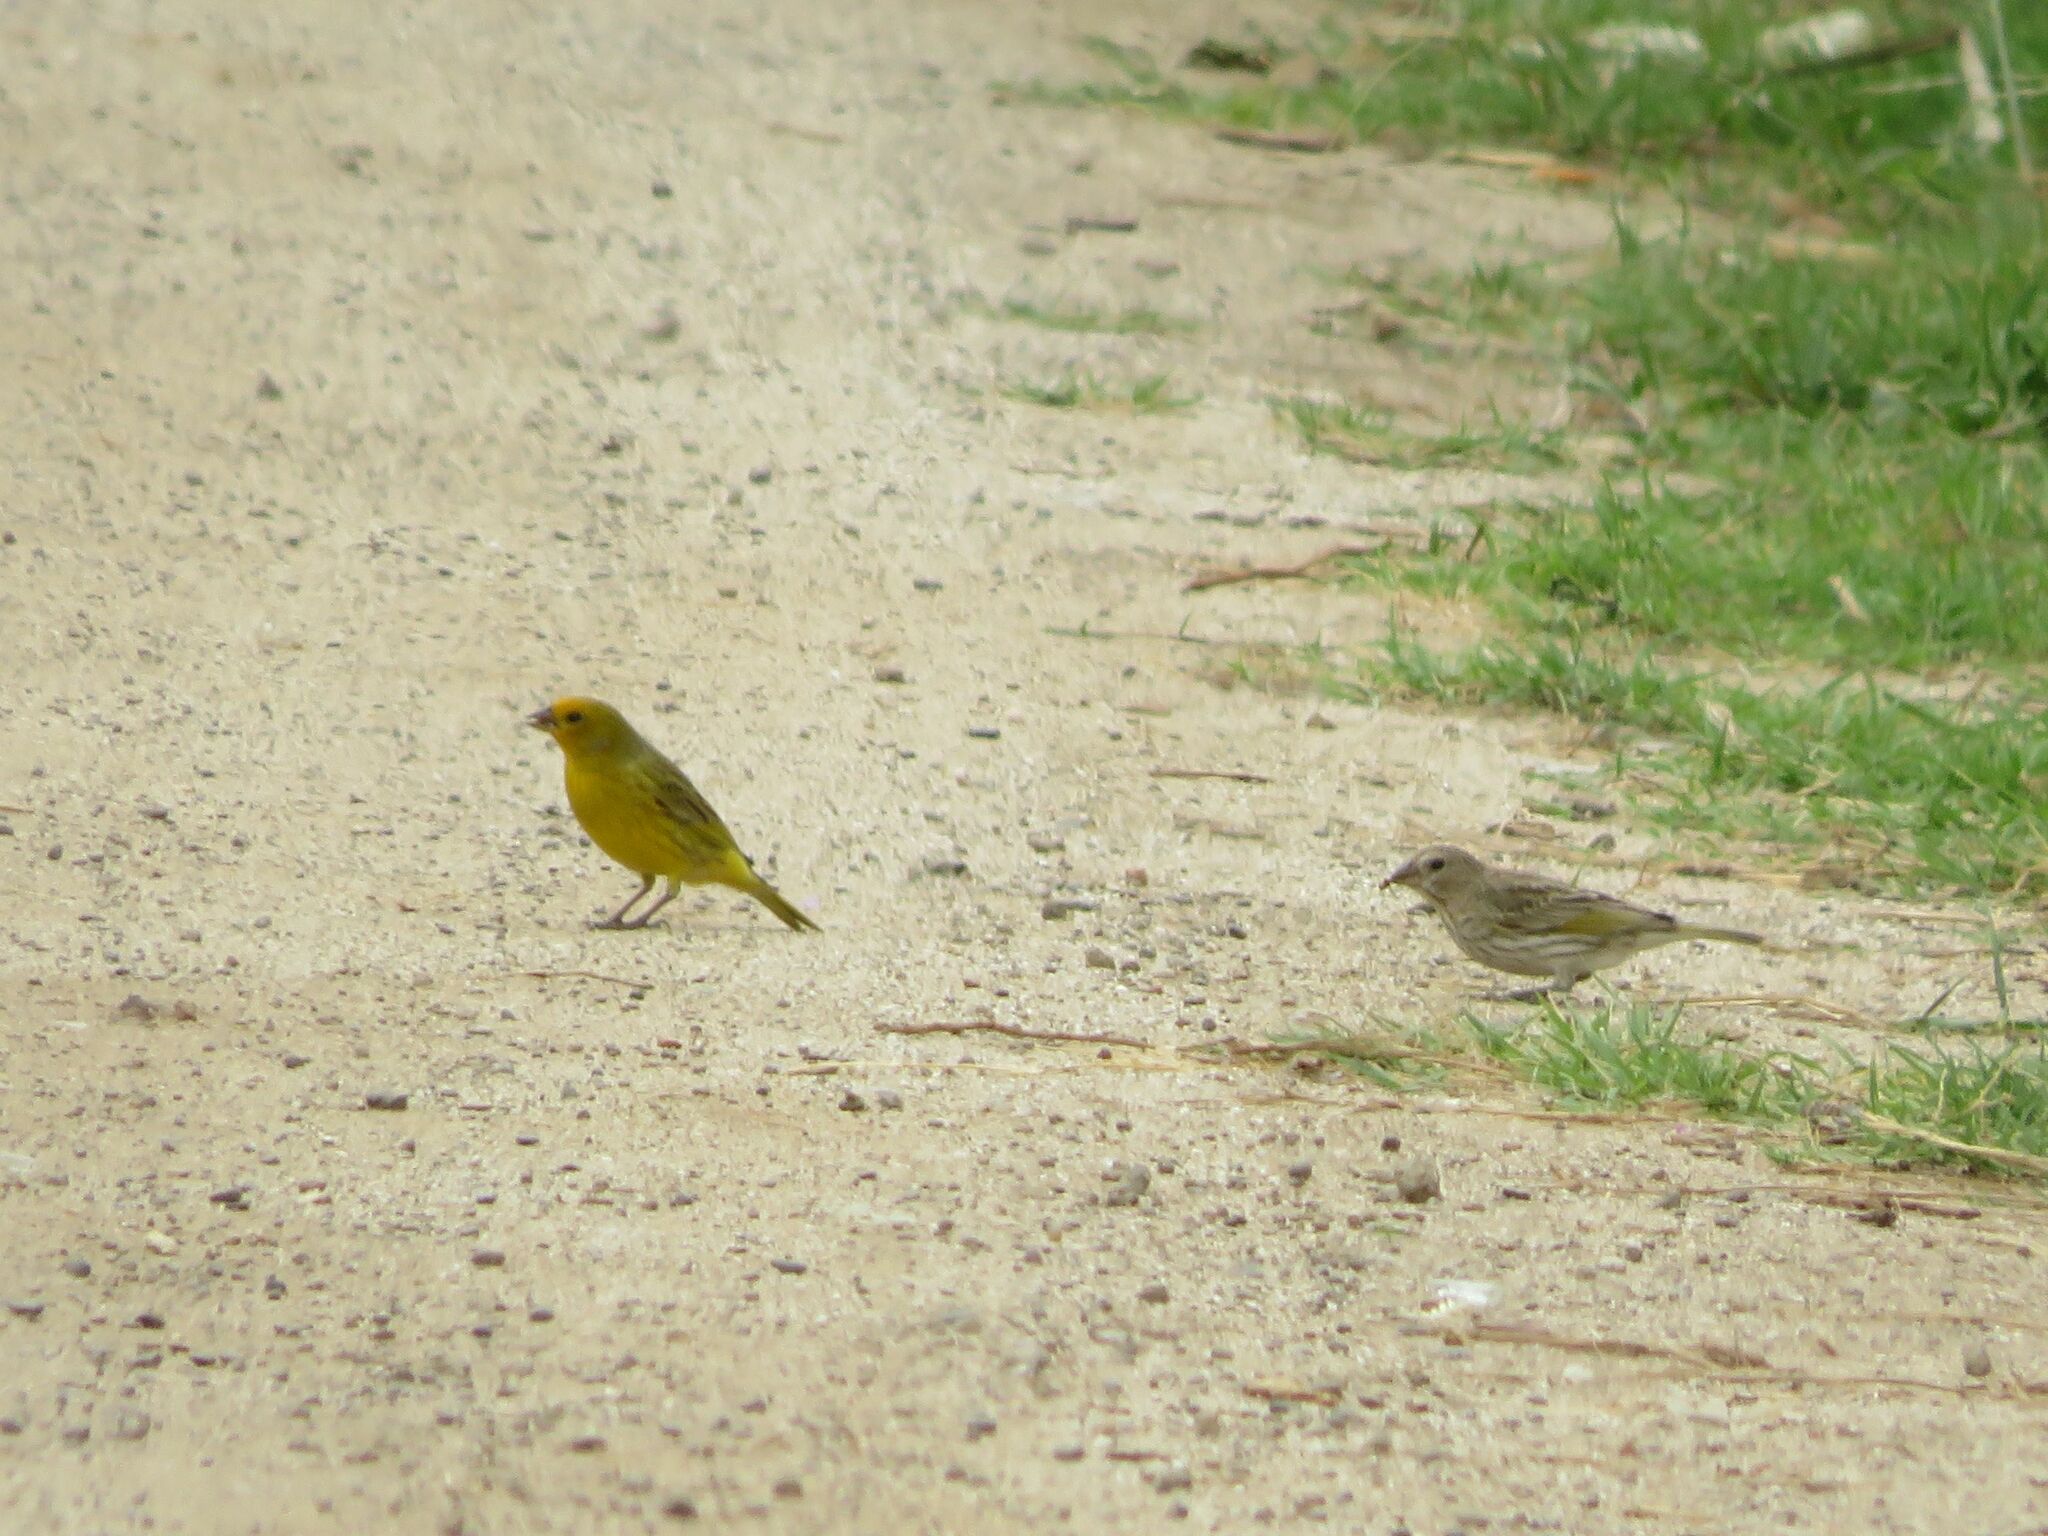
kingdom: Animalia
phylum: Chordata
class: Aves
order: Passeriformes
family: Thraupidae
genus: Sicalis
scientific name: Sicalis flaveola
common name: Saffron finch
